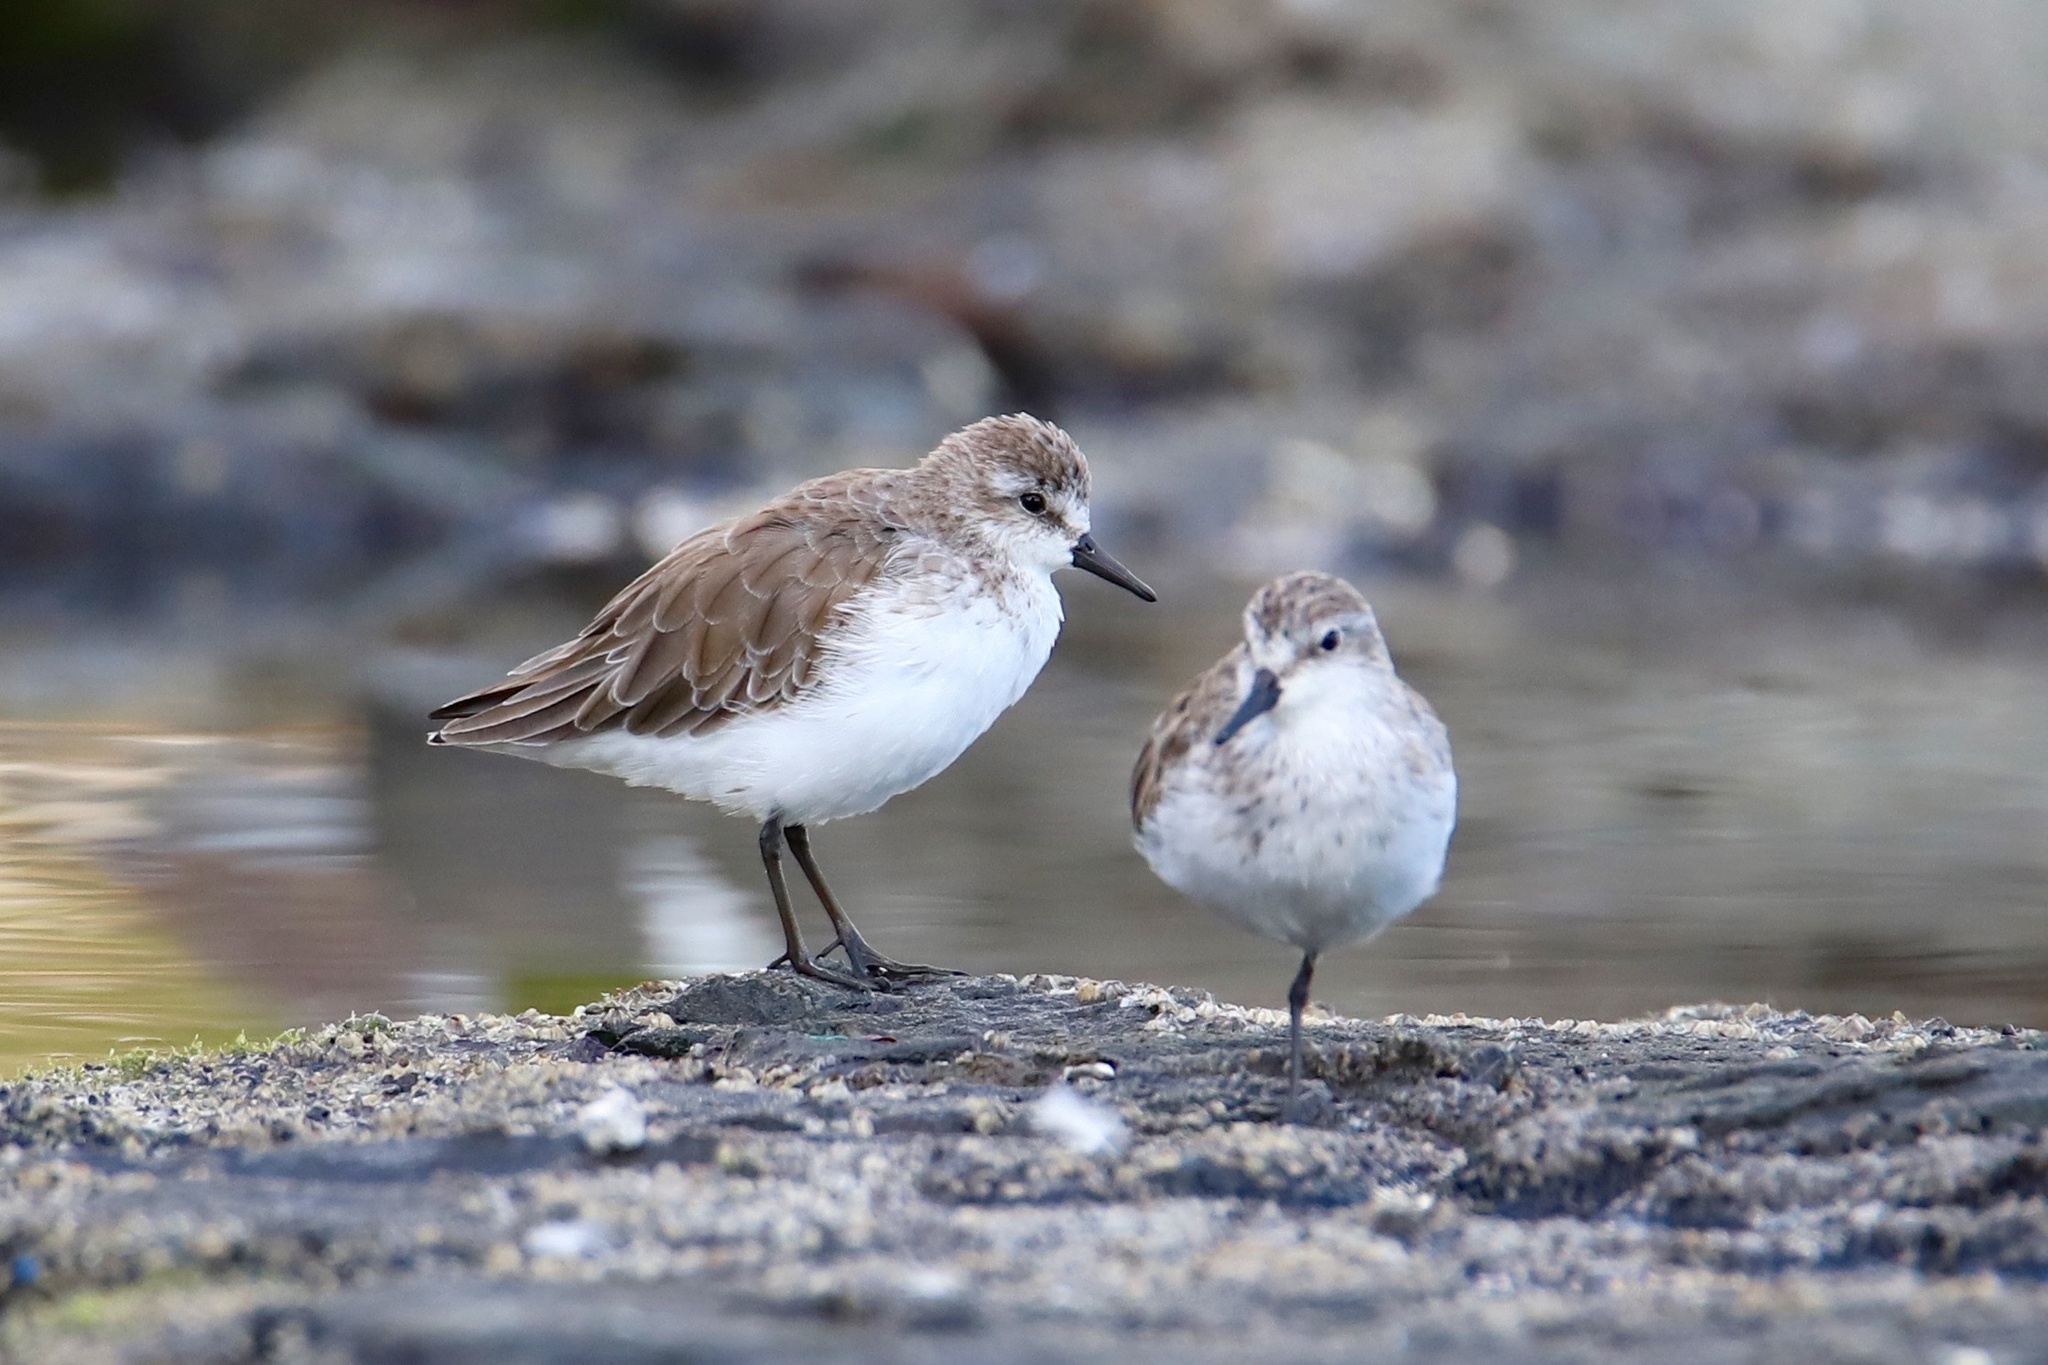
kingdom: Animalia
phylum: Chordata
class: Aves
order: Charadriiformes
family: Scolopacidae
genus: Calidris
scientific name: Calidris pusilla
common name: Semipalmated sandpiper
